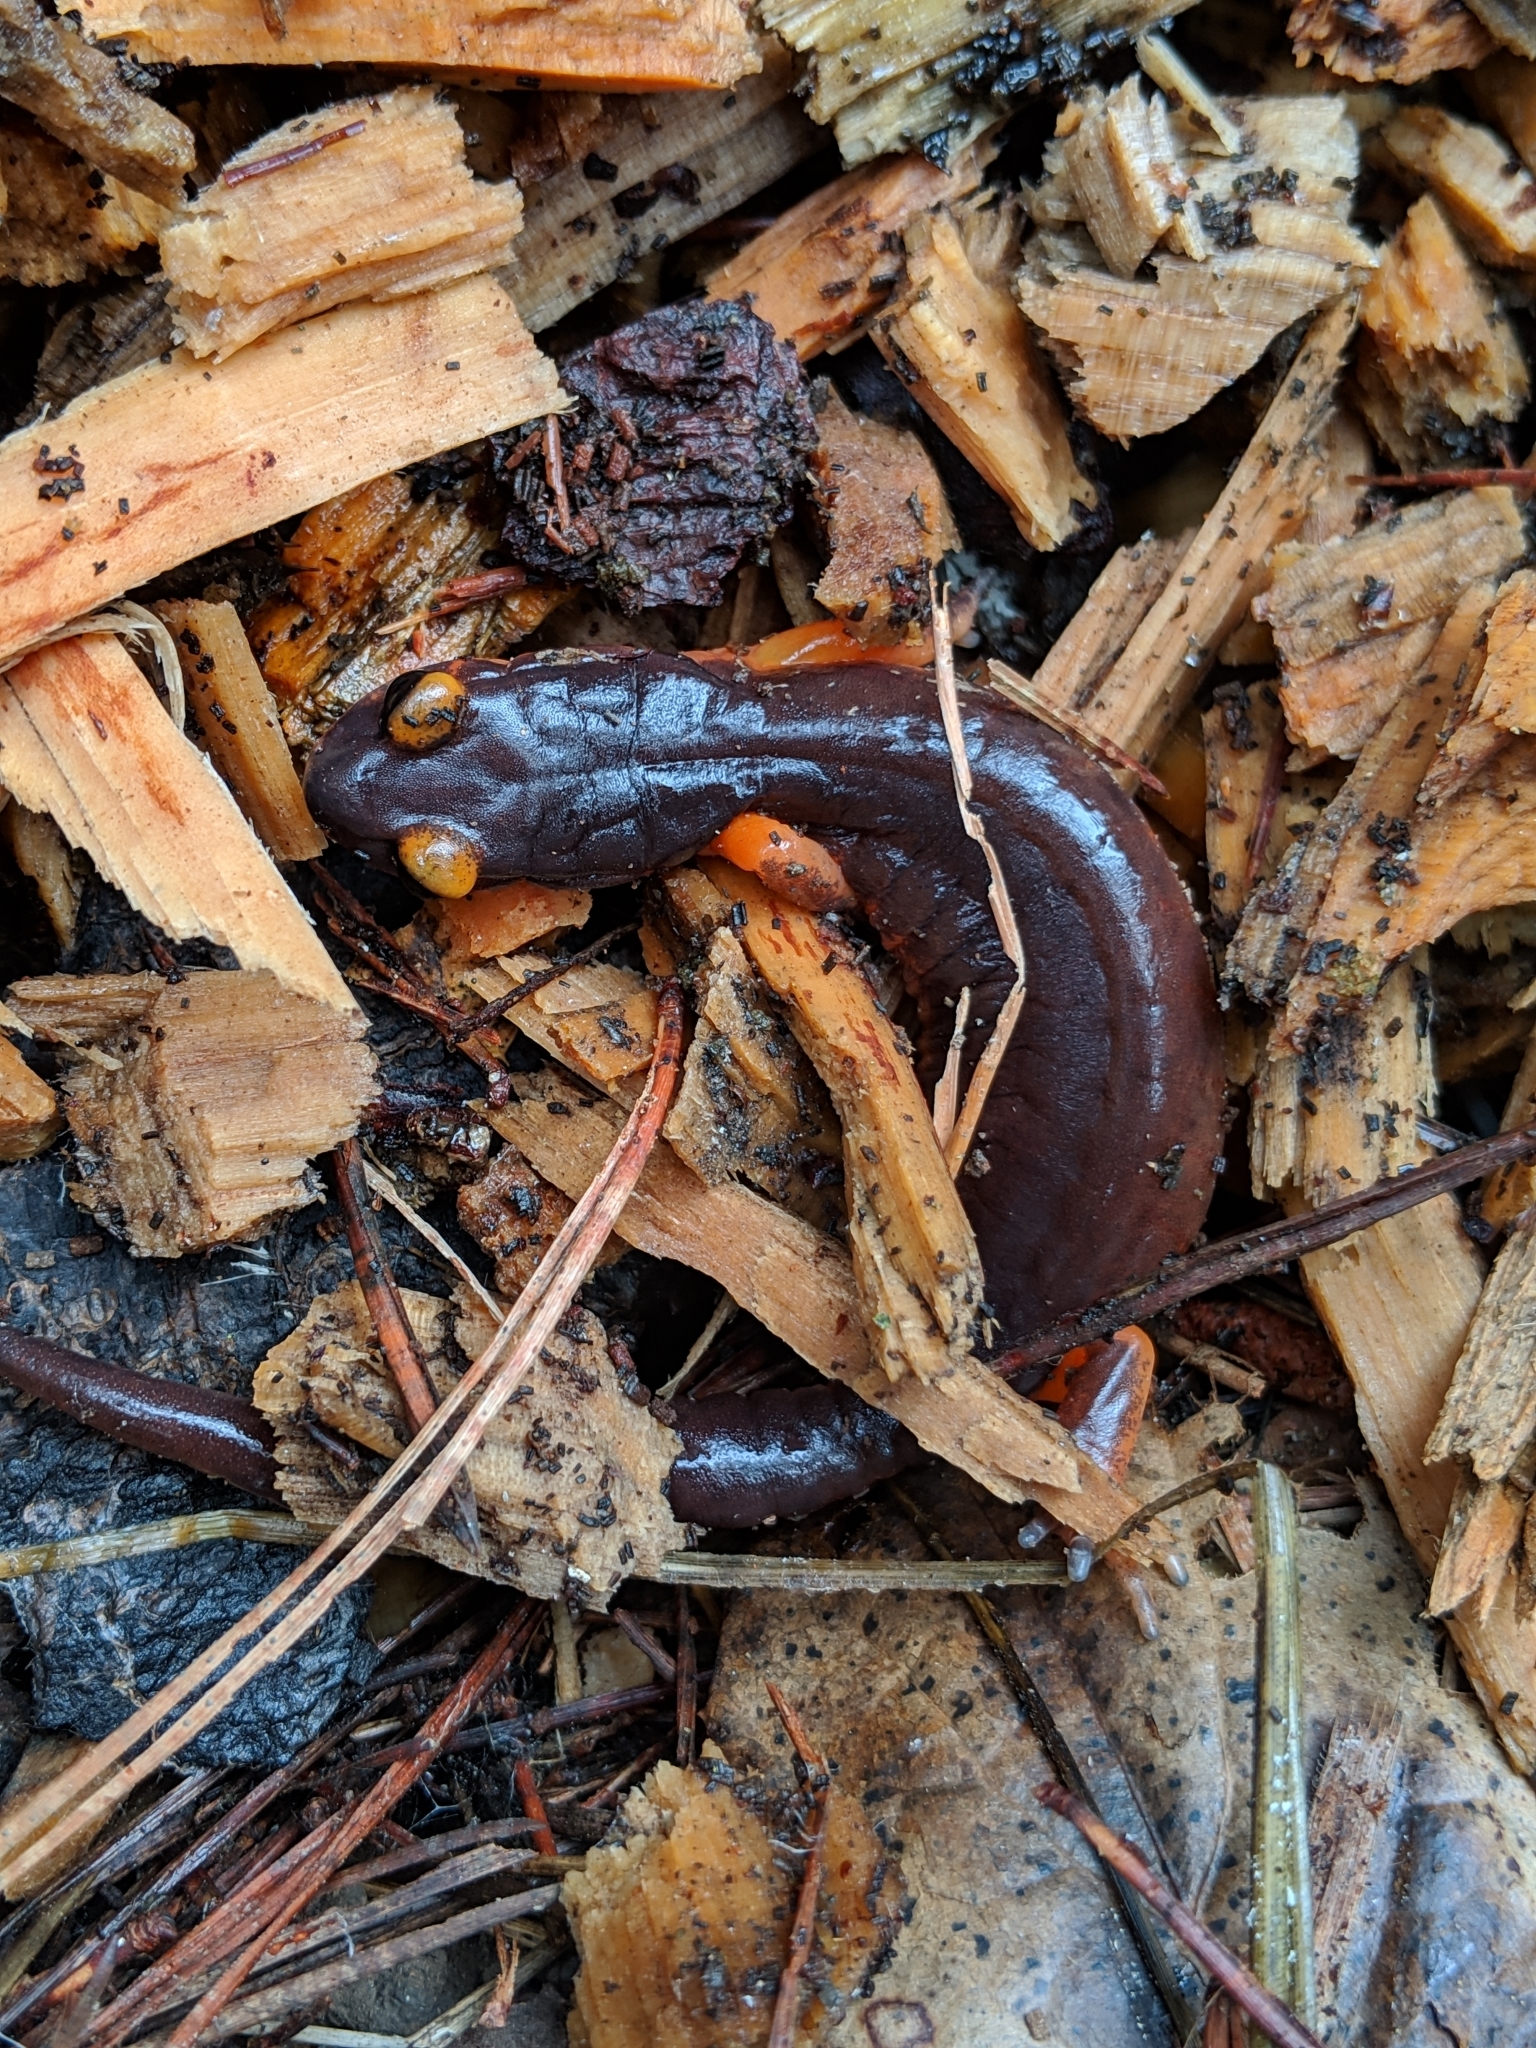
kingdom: Animalia
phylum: Chordata
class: Amphibia
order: Caudata
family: Plethodontidae
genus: Ensatina
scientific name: Ensatina eschscholtzii
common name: Ensatina
